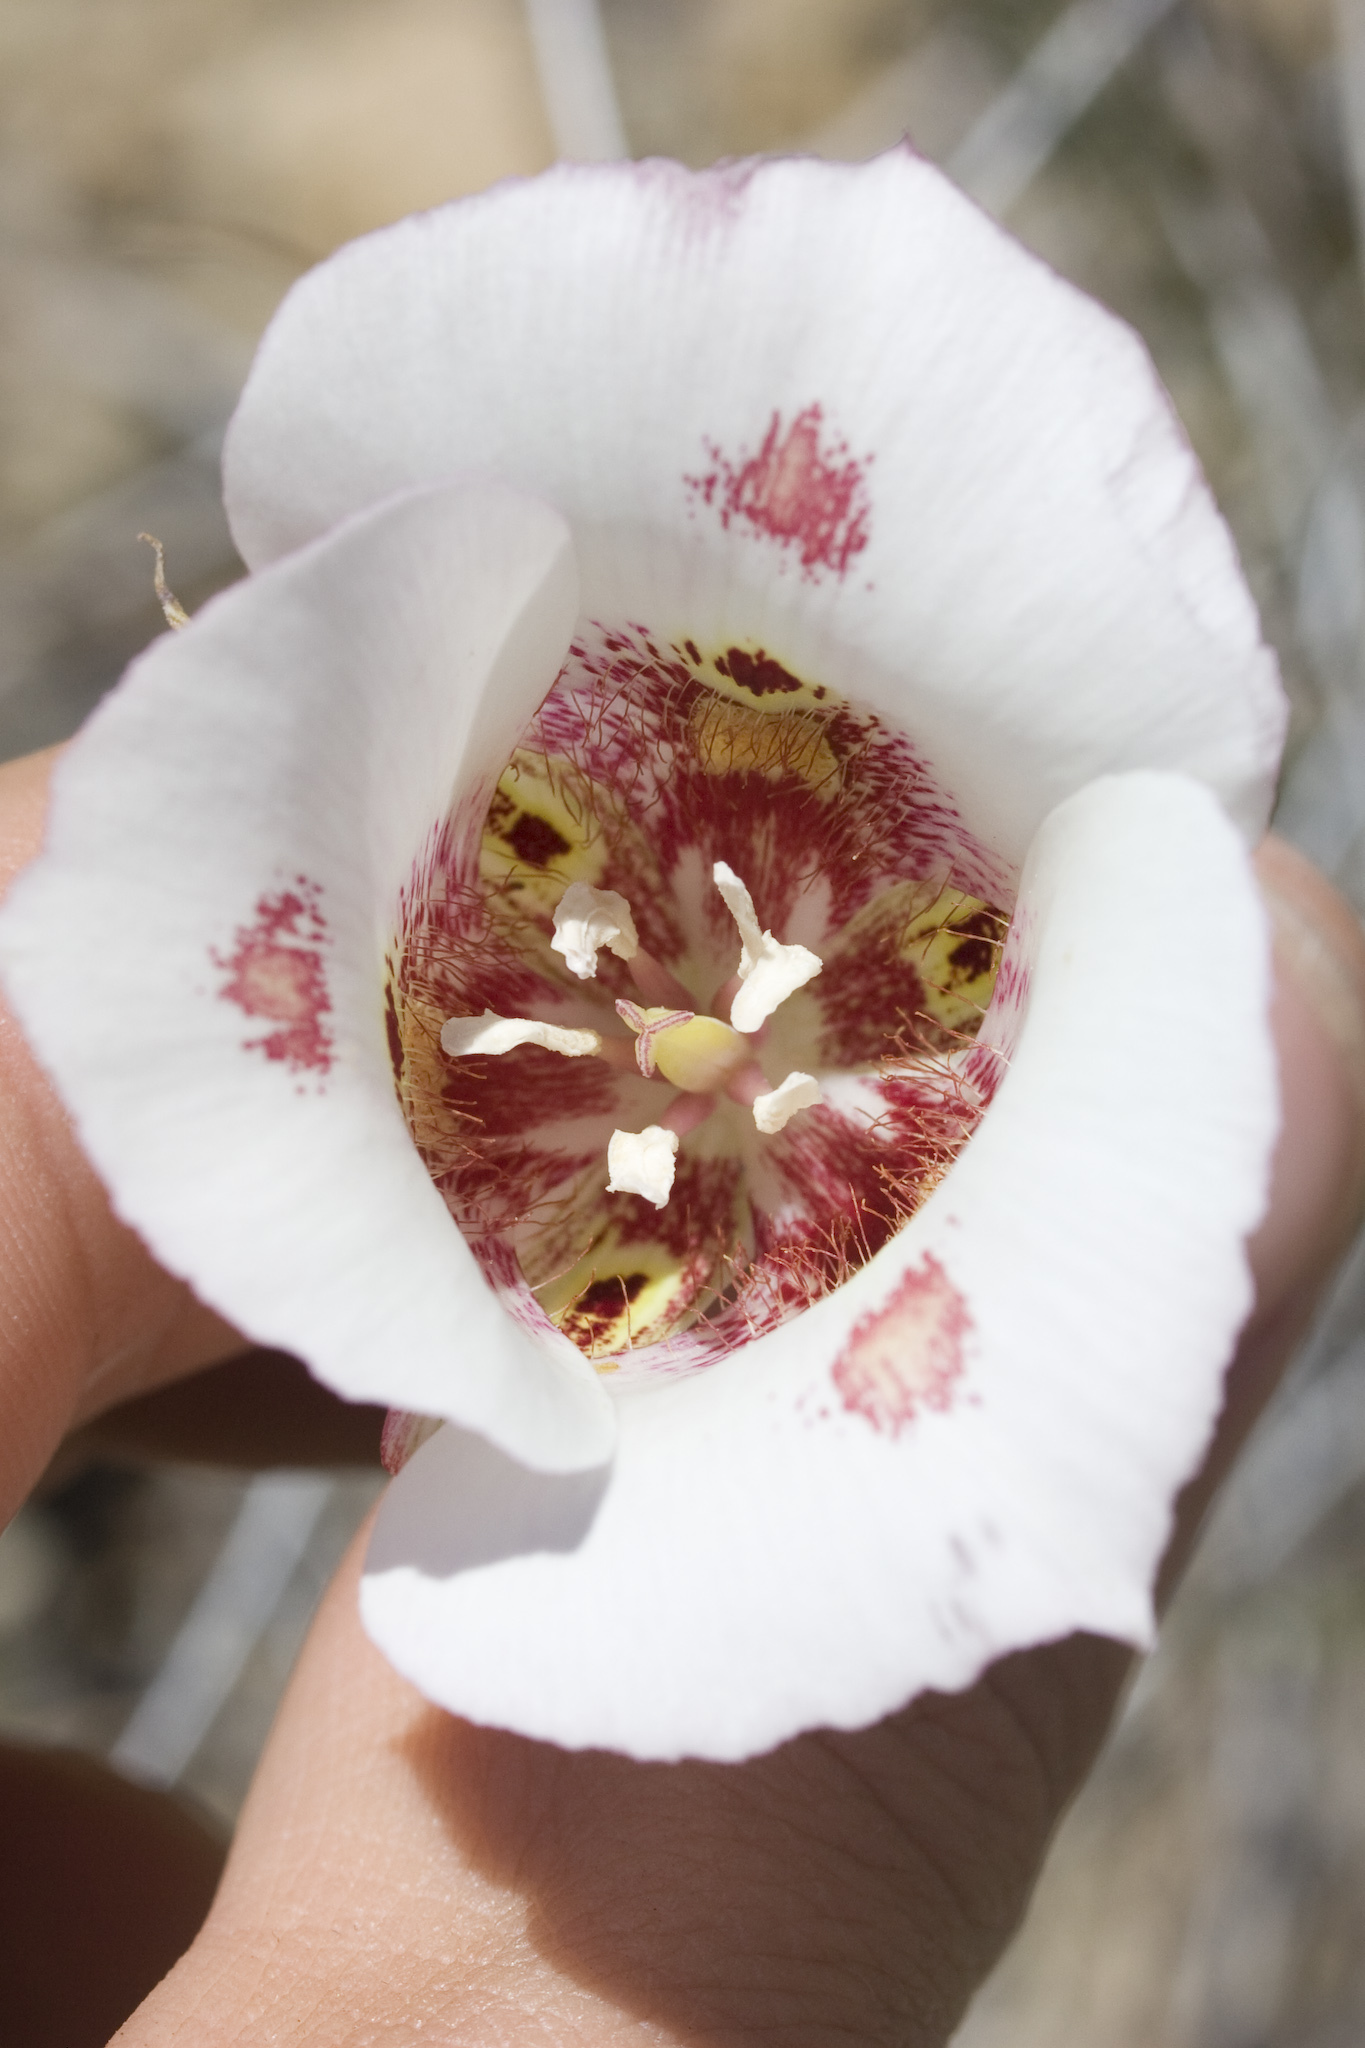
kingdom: Plantae
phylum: Tracheophyta
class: Liliopsida
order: Liliales
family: Liliaceae
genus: Calochortus
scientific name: Calochortus venustus
